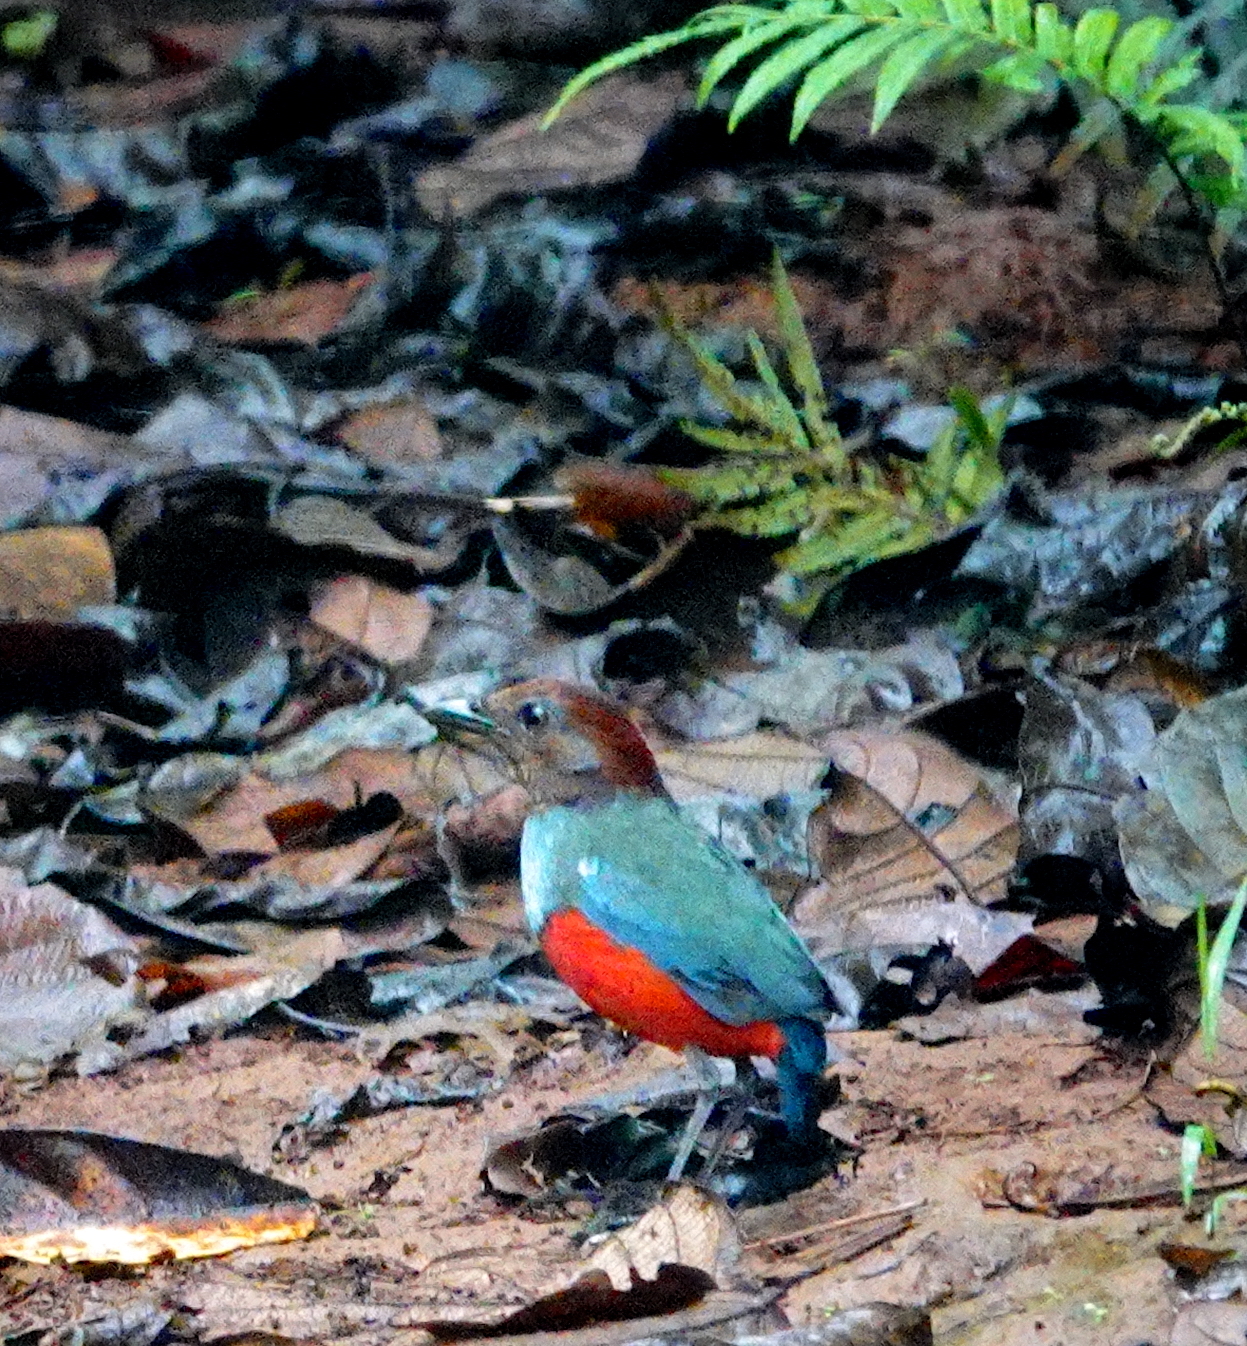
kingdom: Animalia
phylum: Chordata
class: Aves
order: Passeriformes
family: Pittidae
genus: Pitta
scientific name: Pitta erythrogaster
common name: Red-bellied pitta
